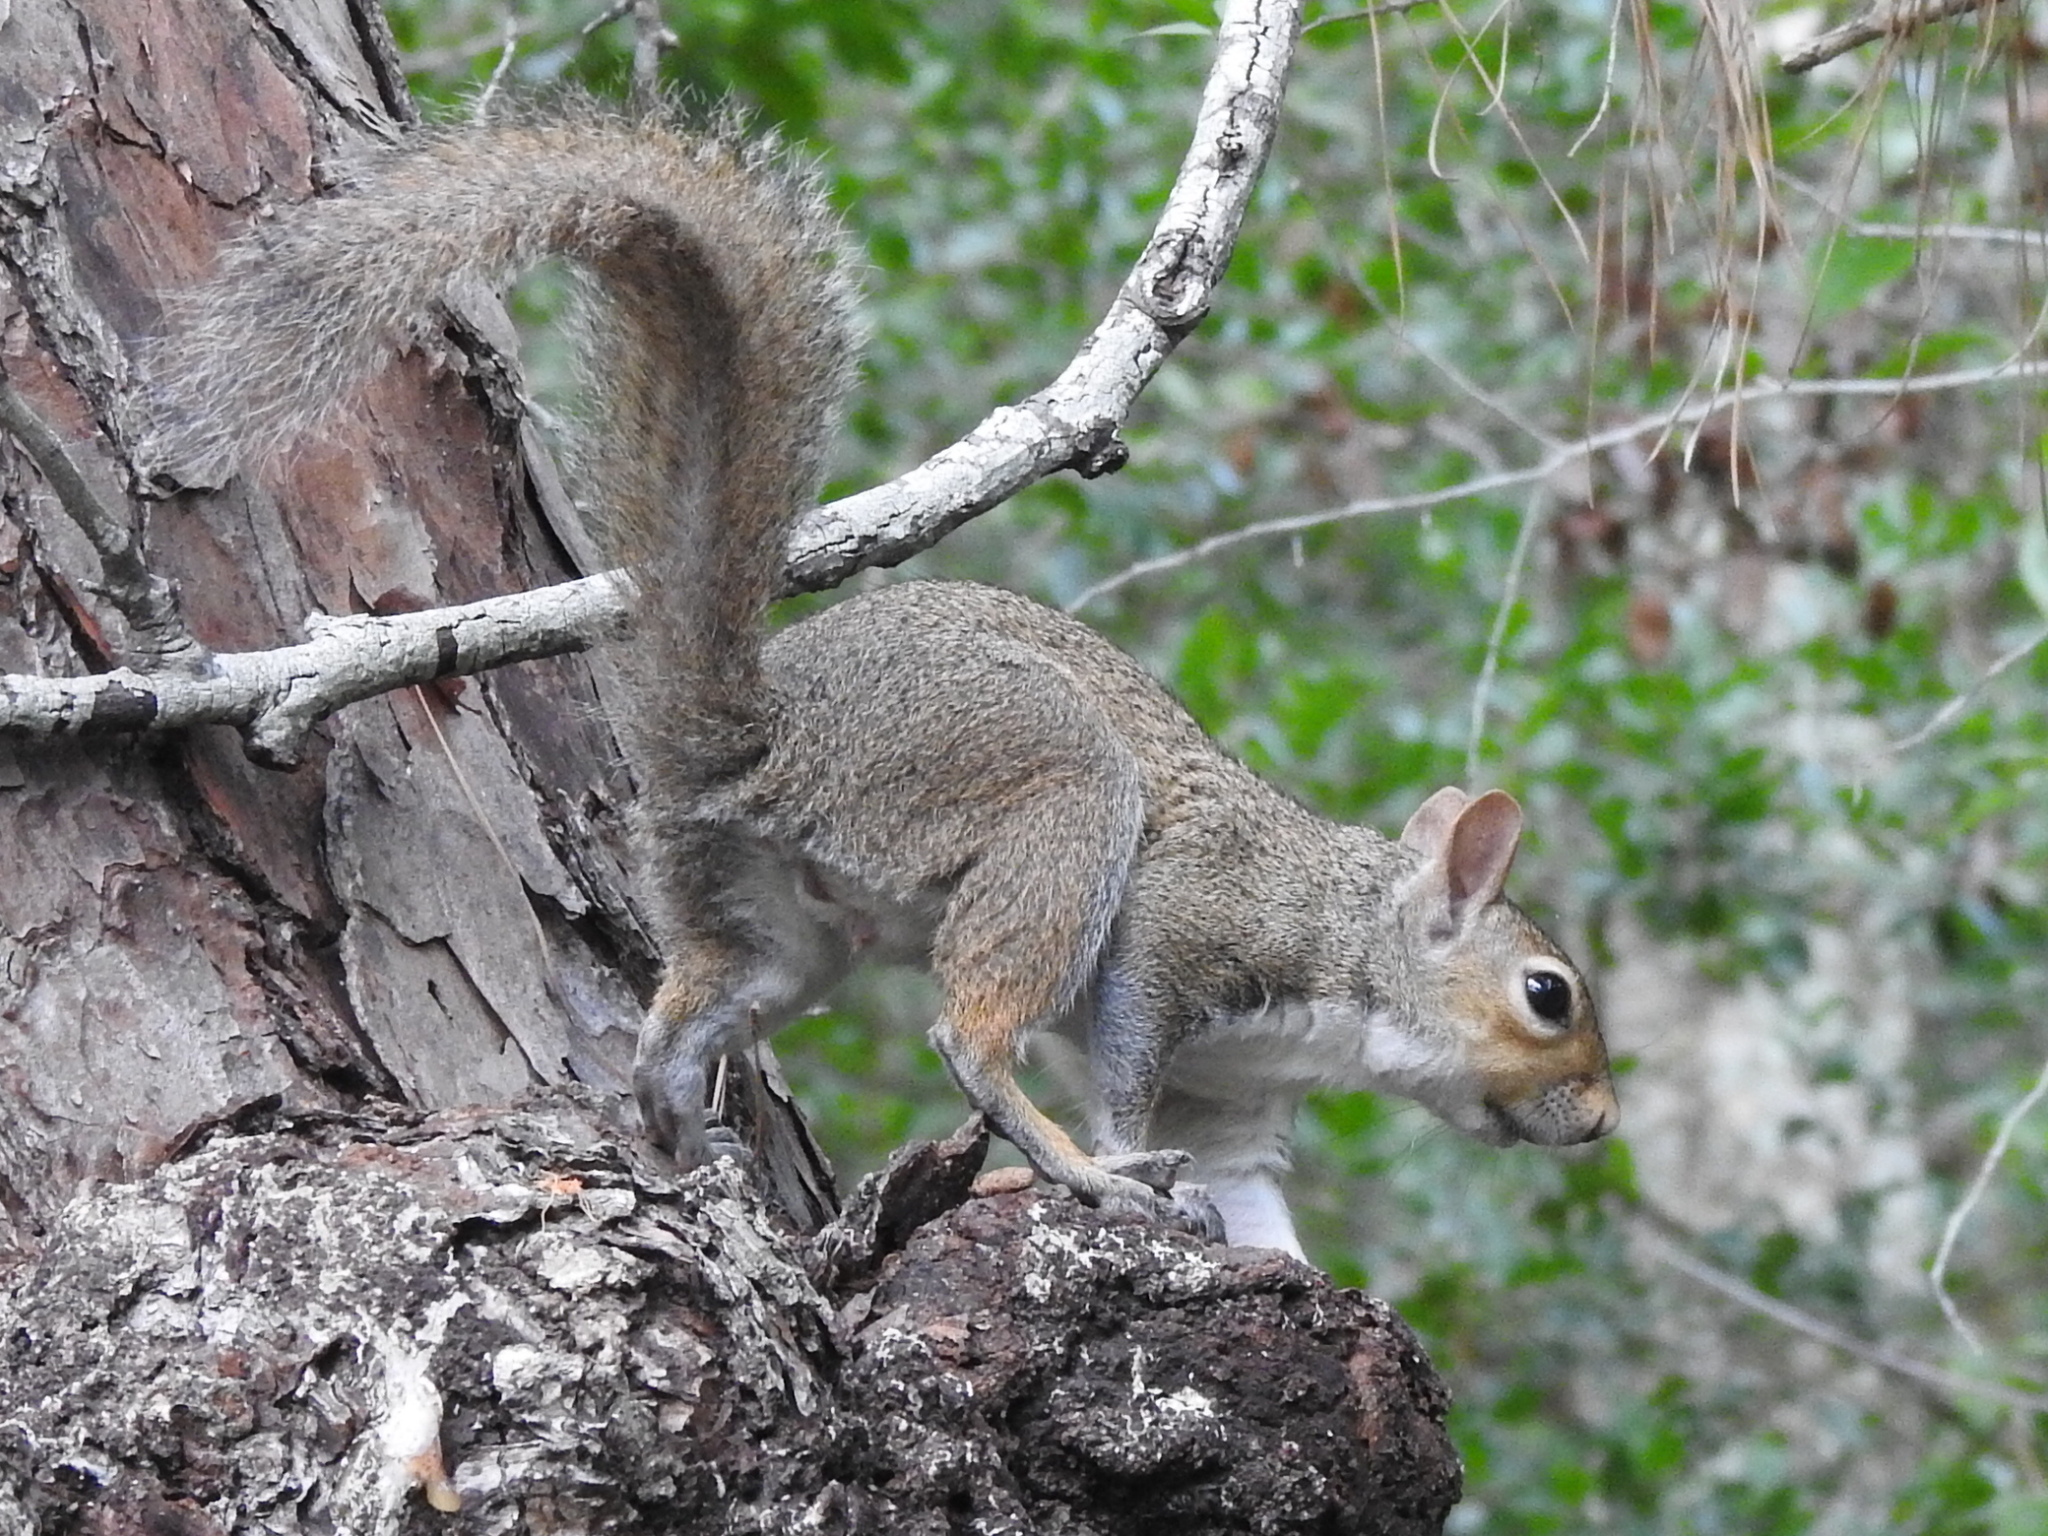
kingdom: Animalia
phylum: Chordata
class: Mammalia
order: Rodentia
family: Sciuridae
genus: Sciurus
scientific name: Sciurus carolinensis
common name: Eastern gray squirrel
